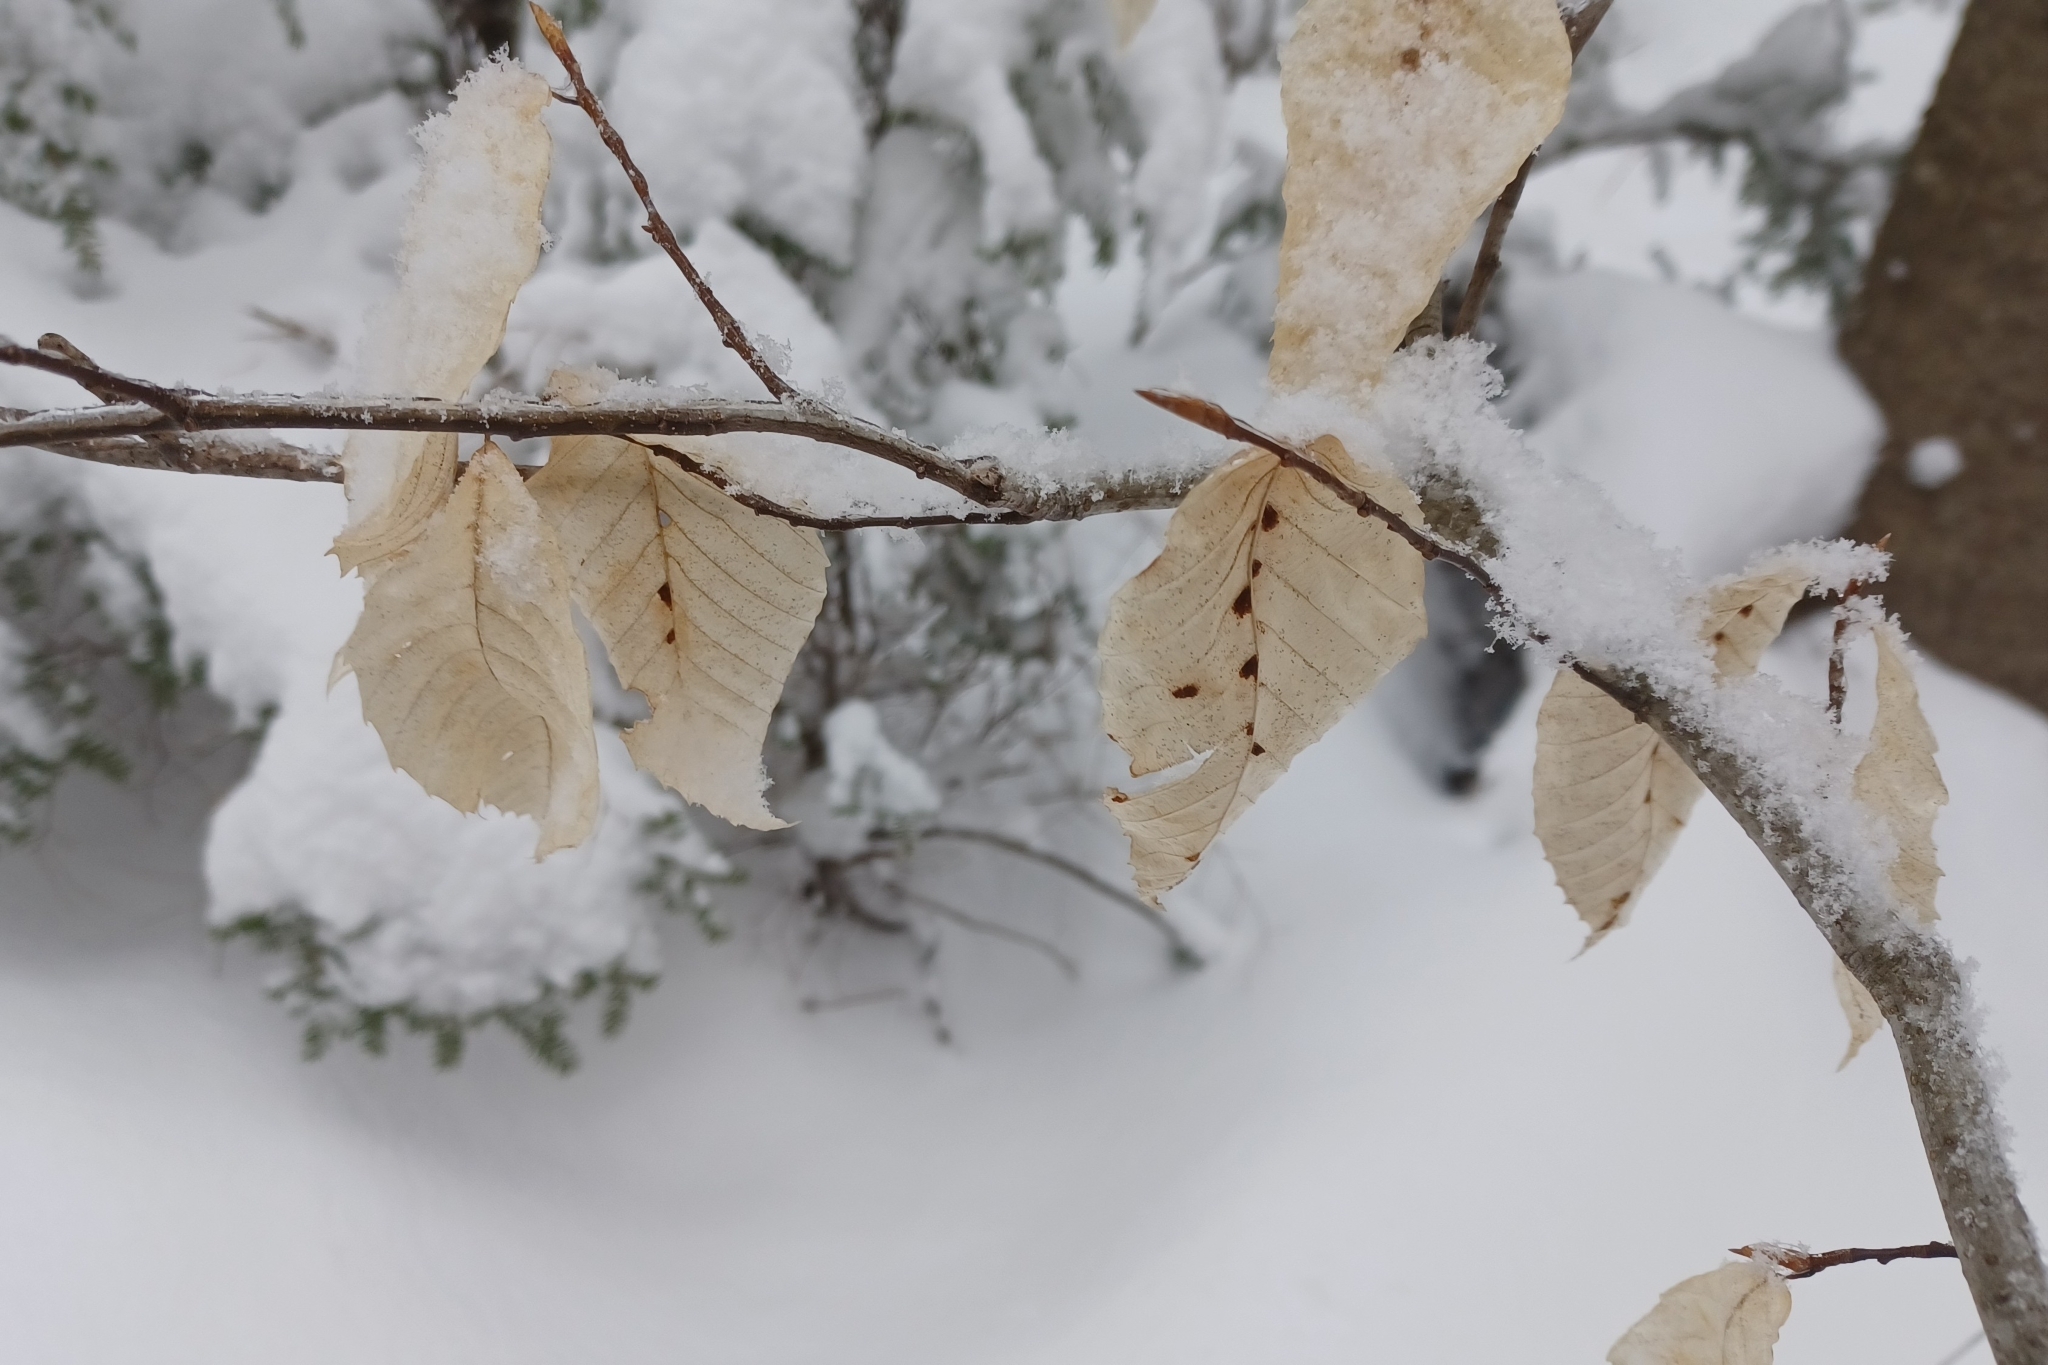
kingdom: Animalia
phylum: Arthropoda
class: Arachnida
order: Trombidiformes
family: Eriophyidae
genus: Acalitus
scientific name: Acalitus
